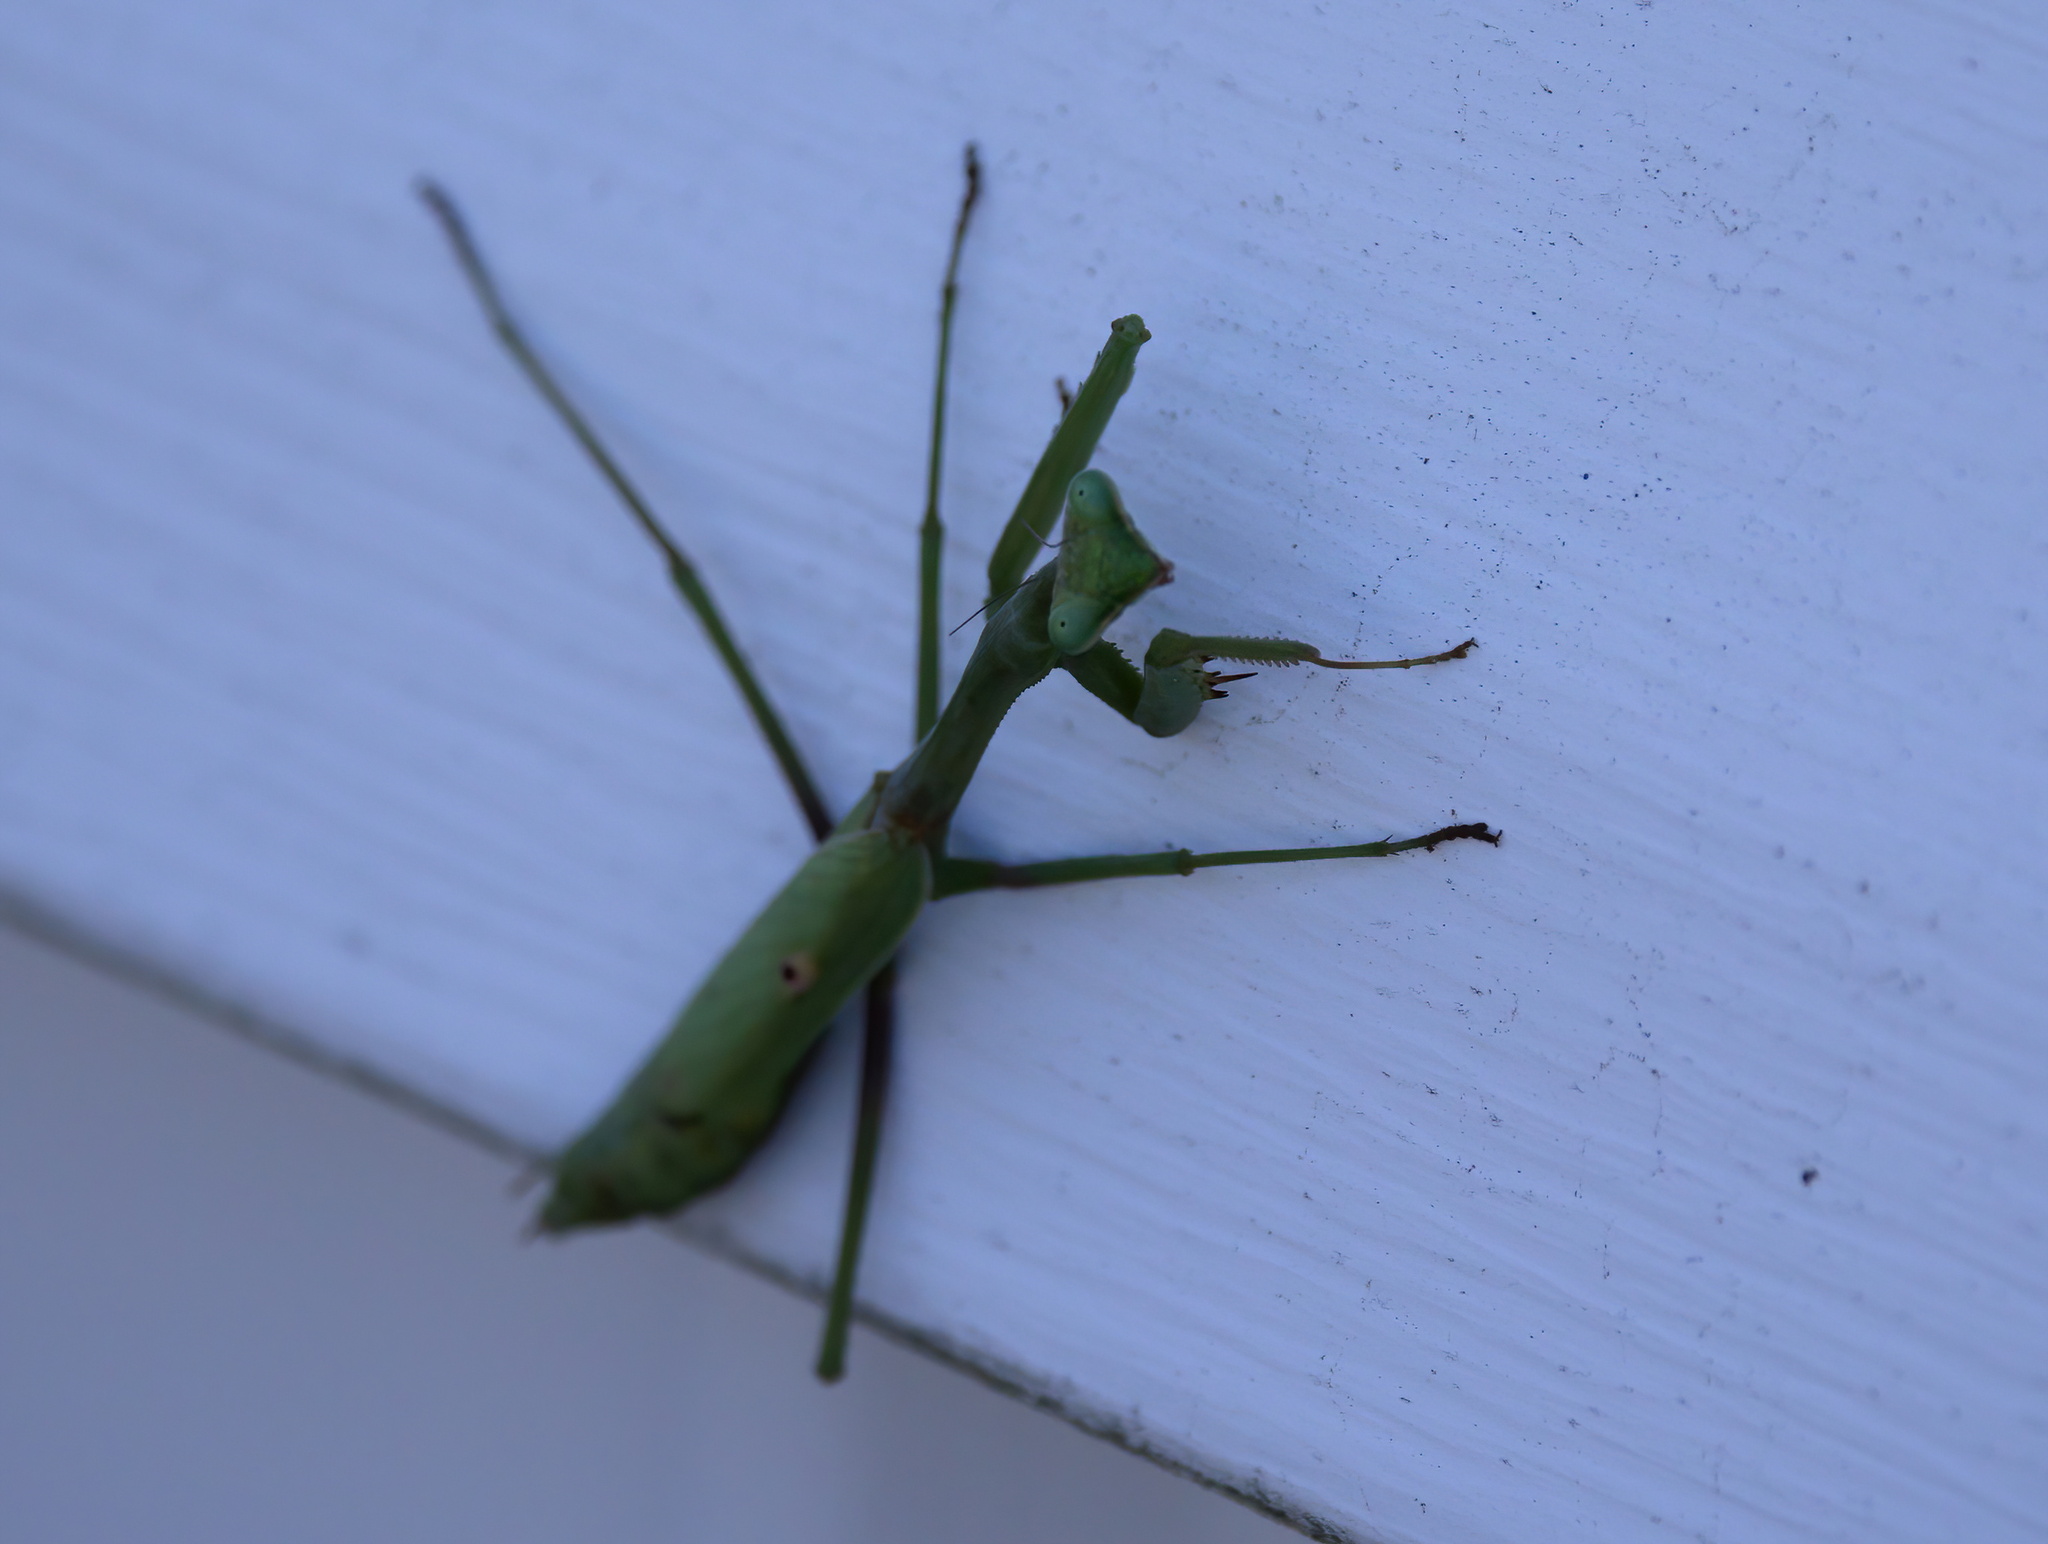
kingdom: Animalia
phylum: Arthropoda
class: Insecta
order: Mantodea
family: Mantidae
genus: Stagmomantis
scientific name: Stagmomantis carolina
